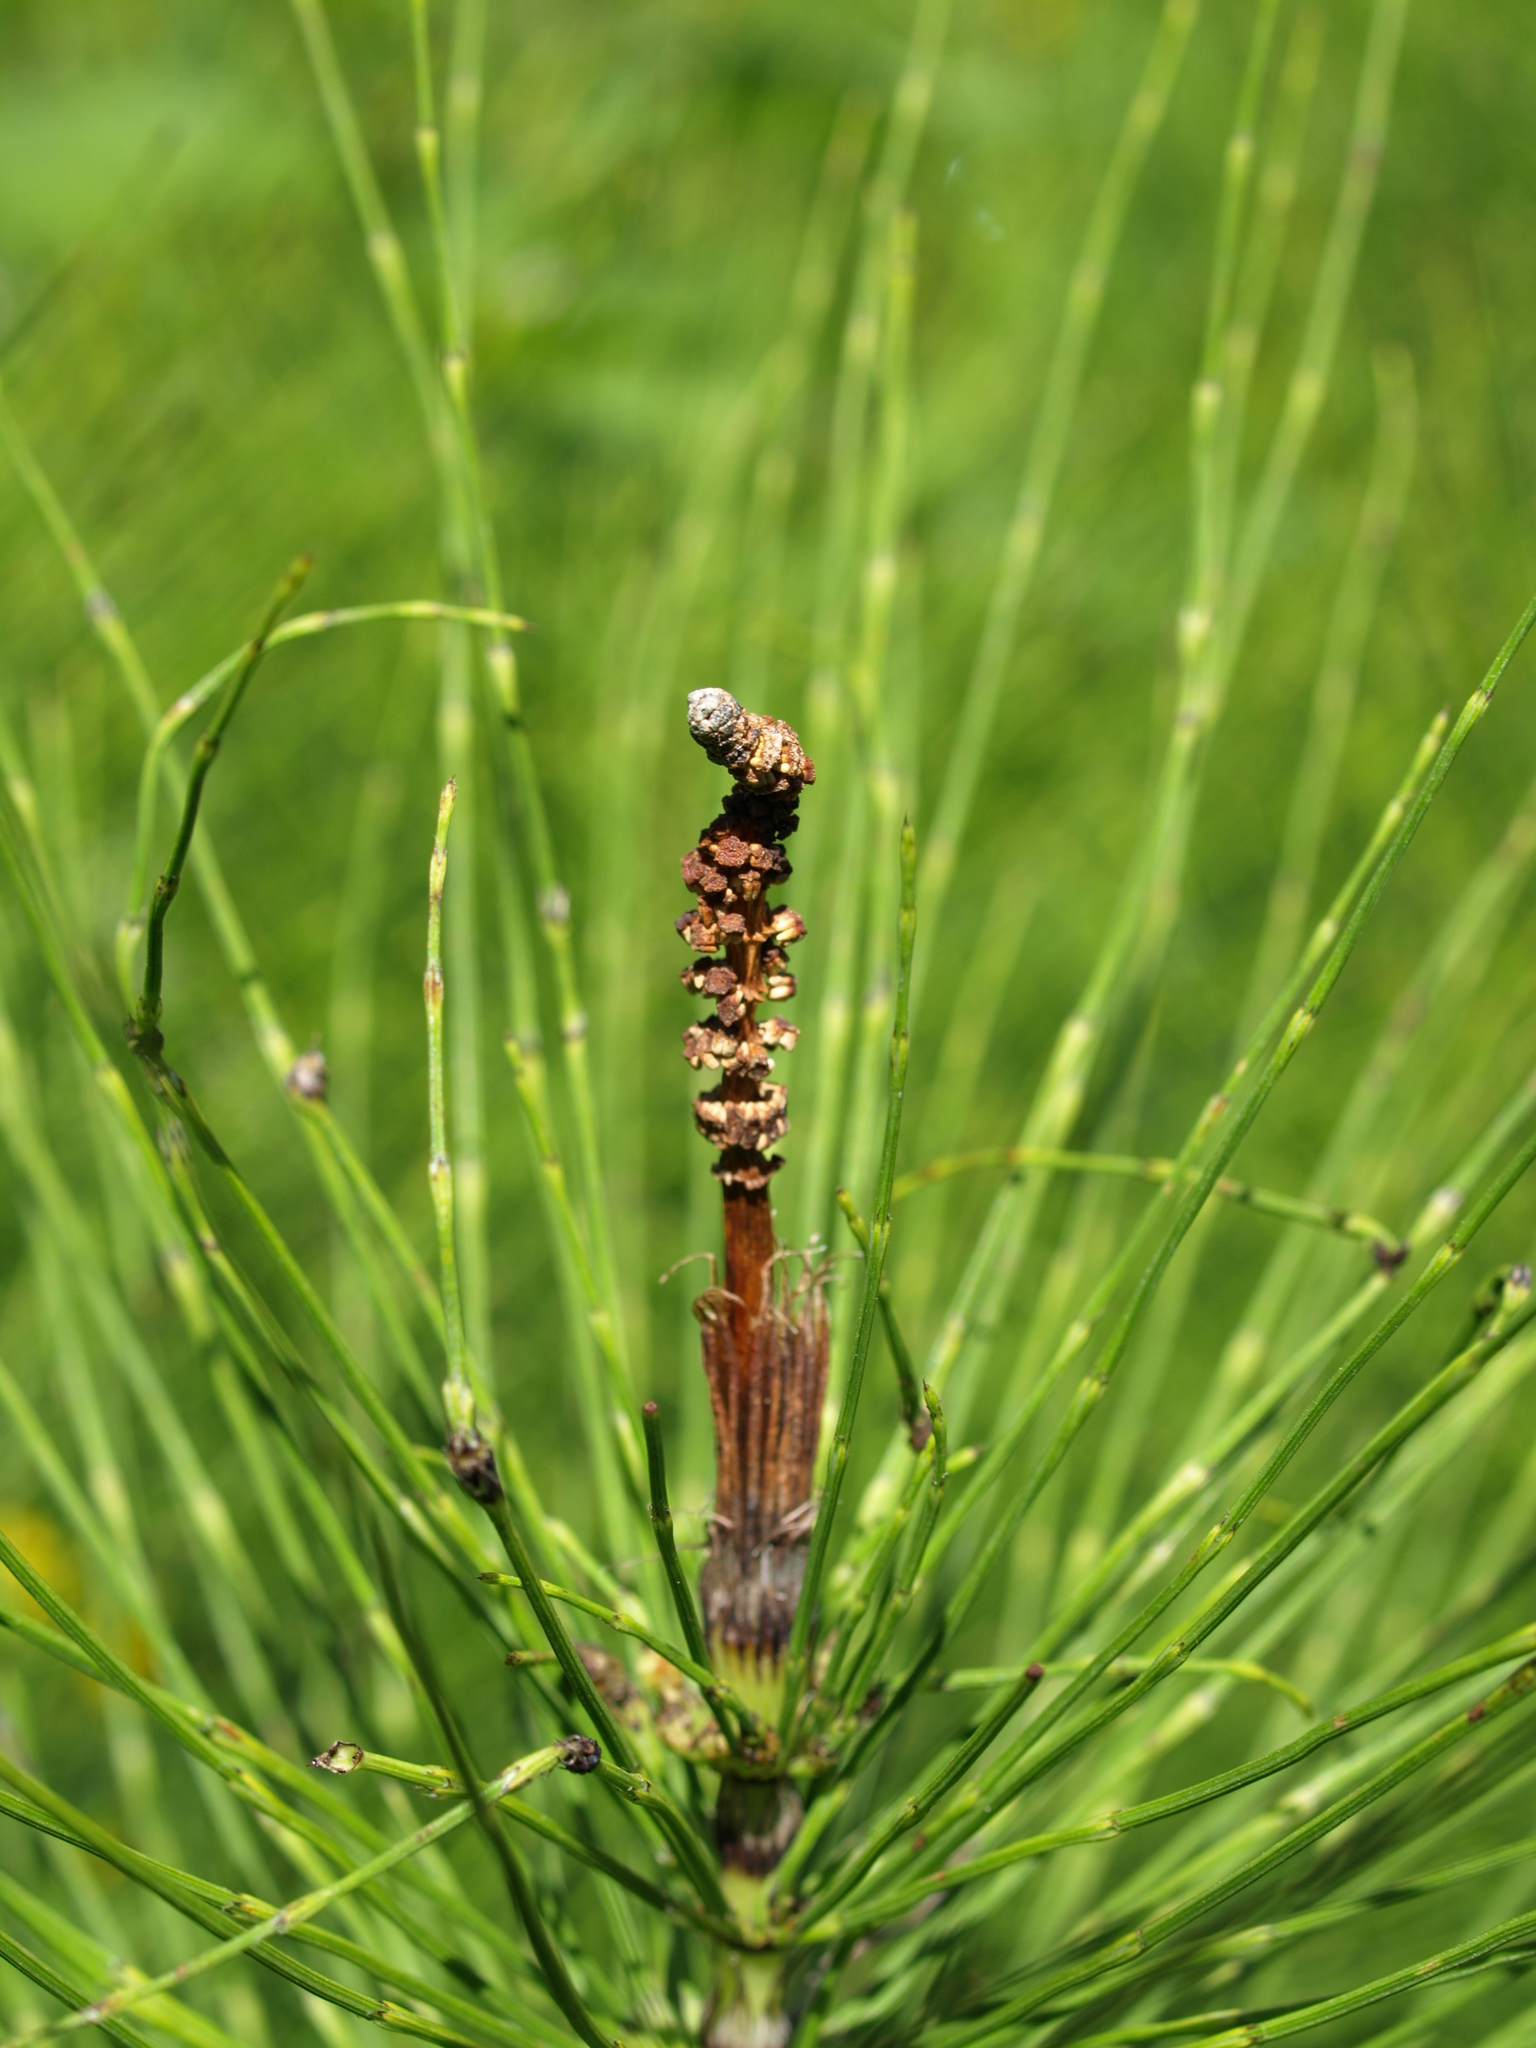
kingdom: Plantae
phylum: Tracheophyta
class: Polypodiopsida
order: Equisetales
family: Equisetaceae
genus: Equisetum
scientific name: Equisetum telmateia
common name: Great horsetail
